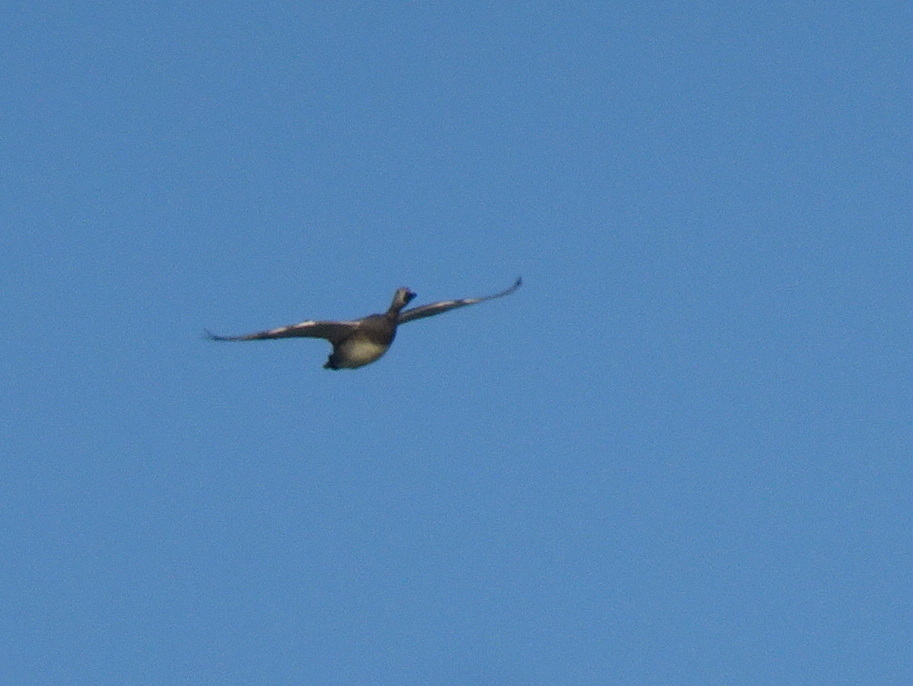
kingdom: Animalia
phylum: Chordata
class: Aves
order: Anseriformes
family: Anatidae
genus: Mareca
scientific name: Mareca strepera
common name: Gadwall
